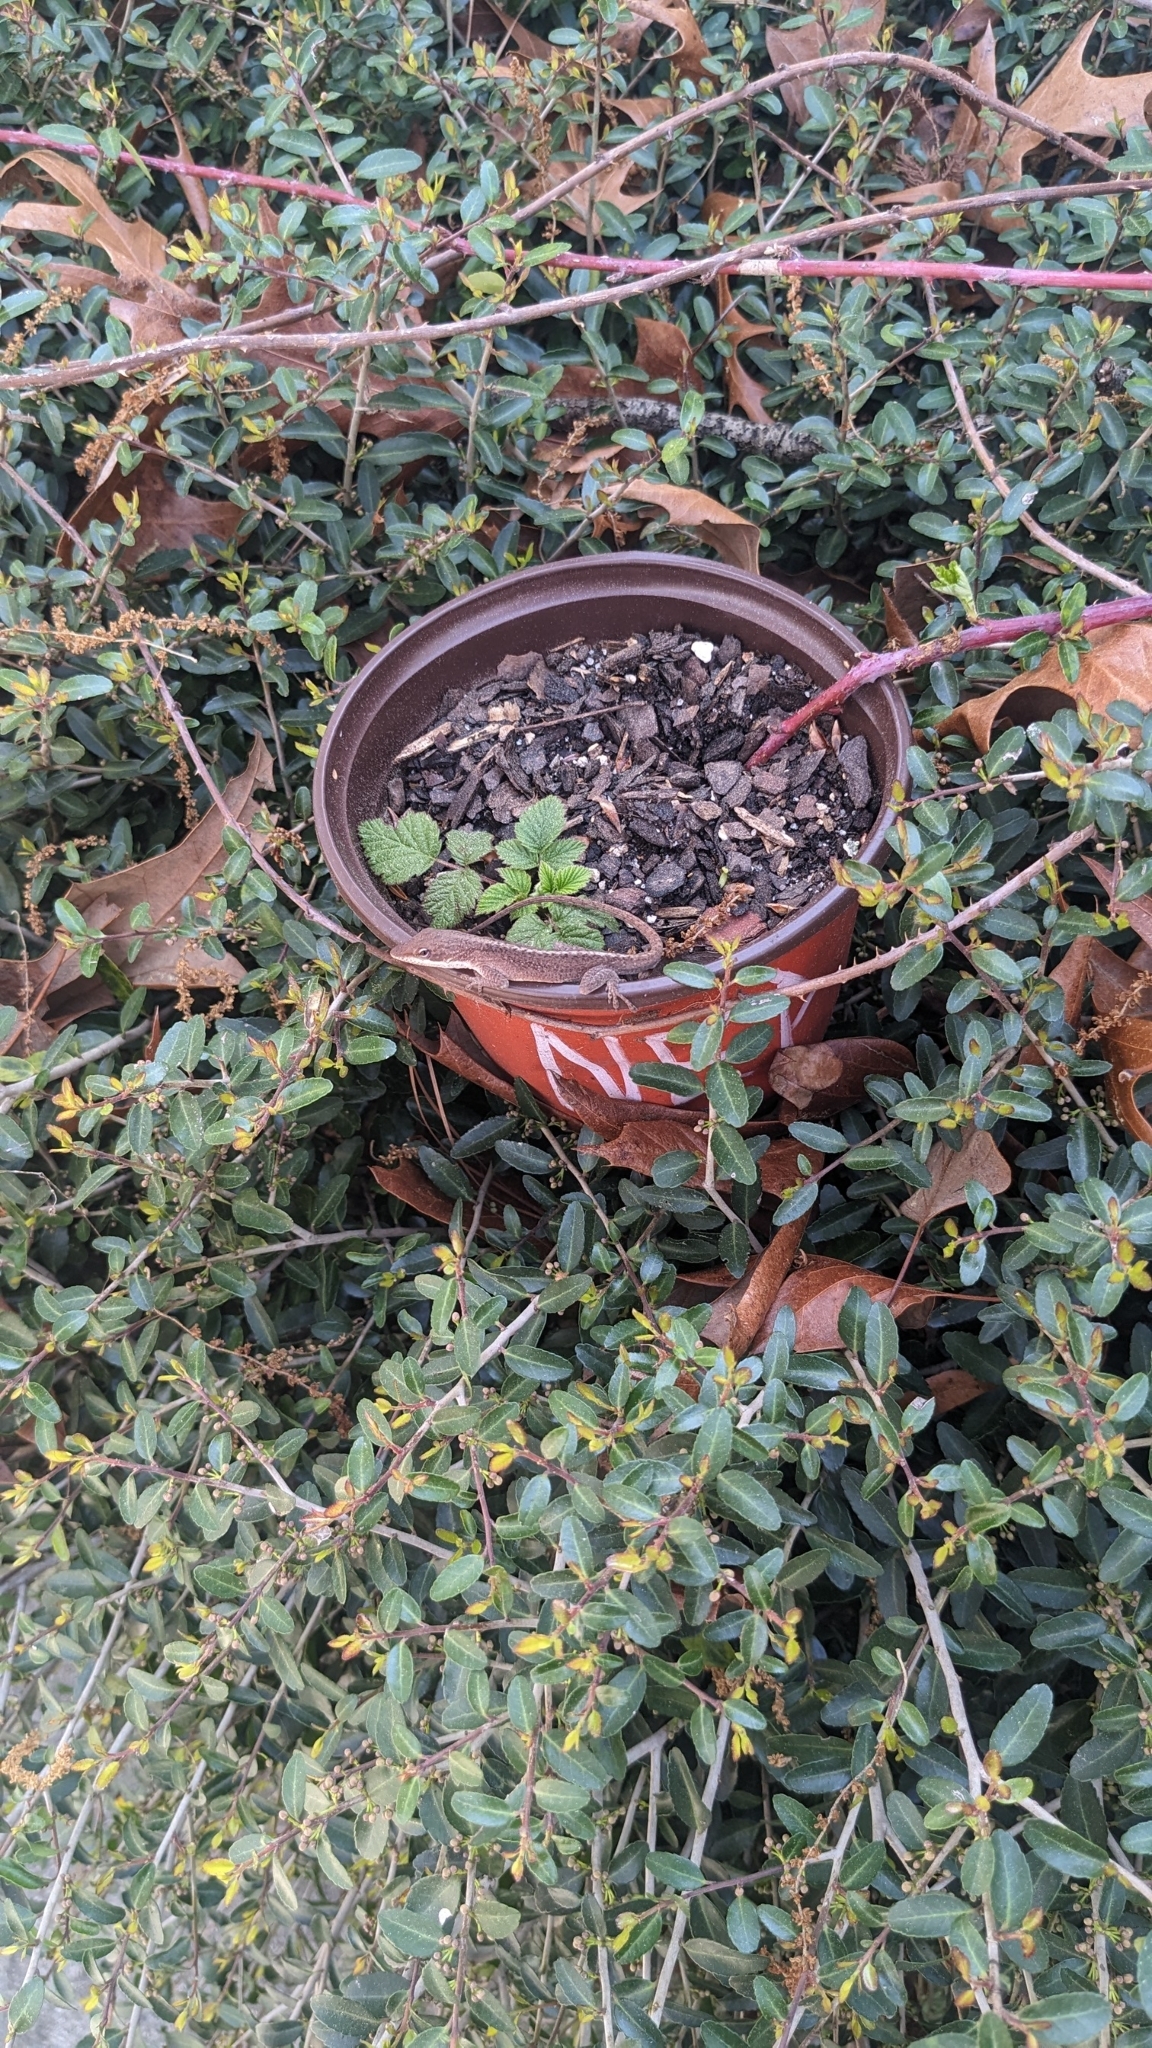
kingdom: Animalia
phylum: Chordata
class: Squamata
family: Dactyloidae
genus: Anolis
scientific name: Anolis carolinensis
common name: Green anole
